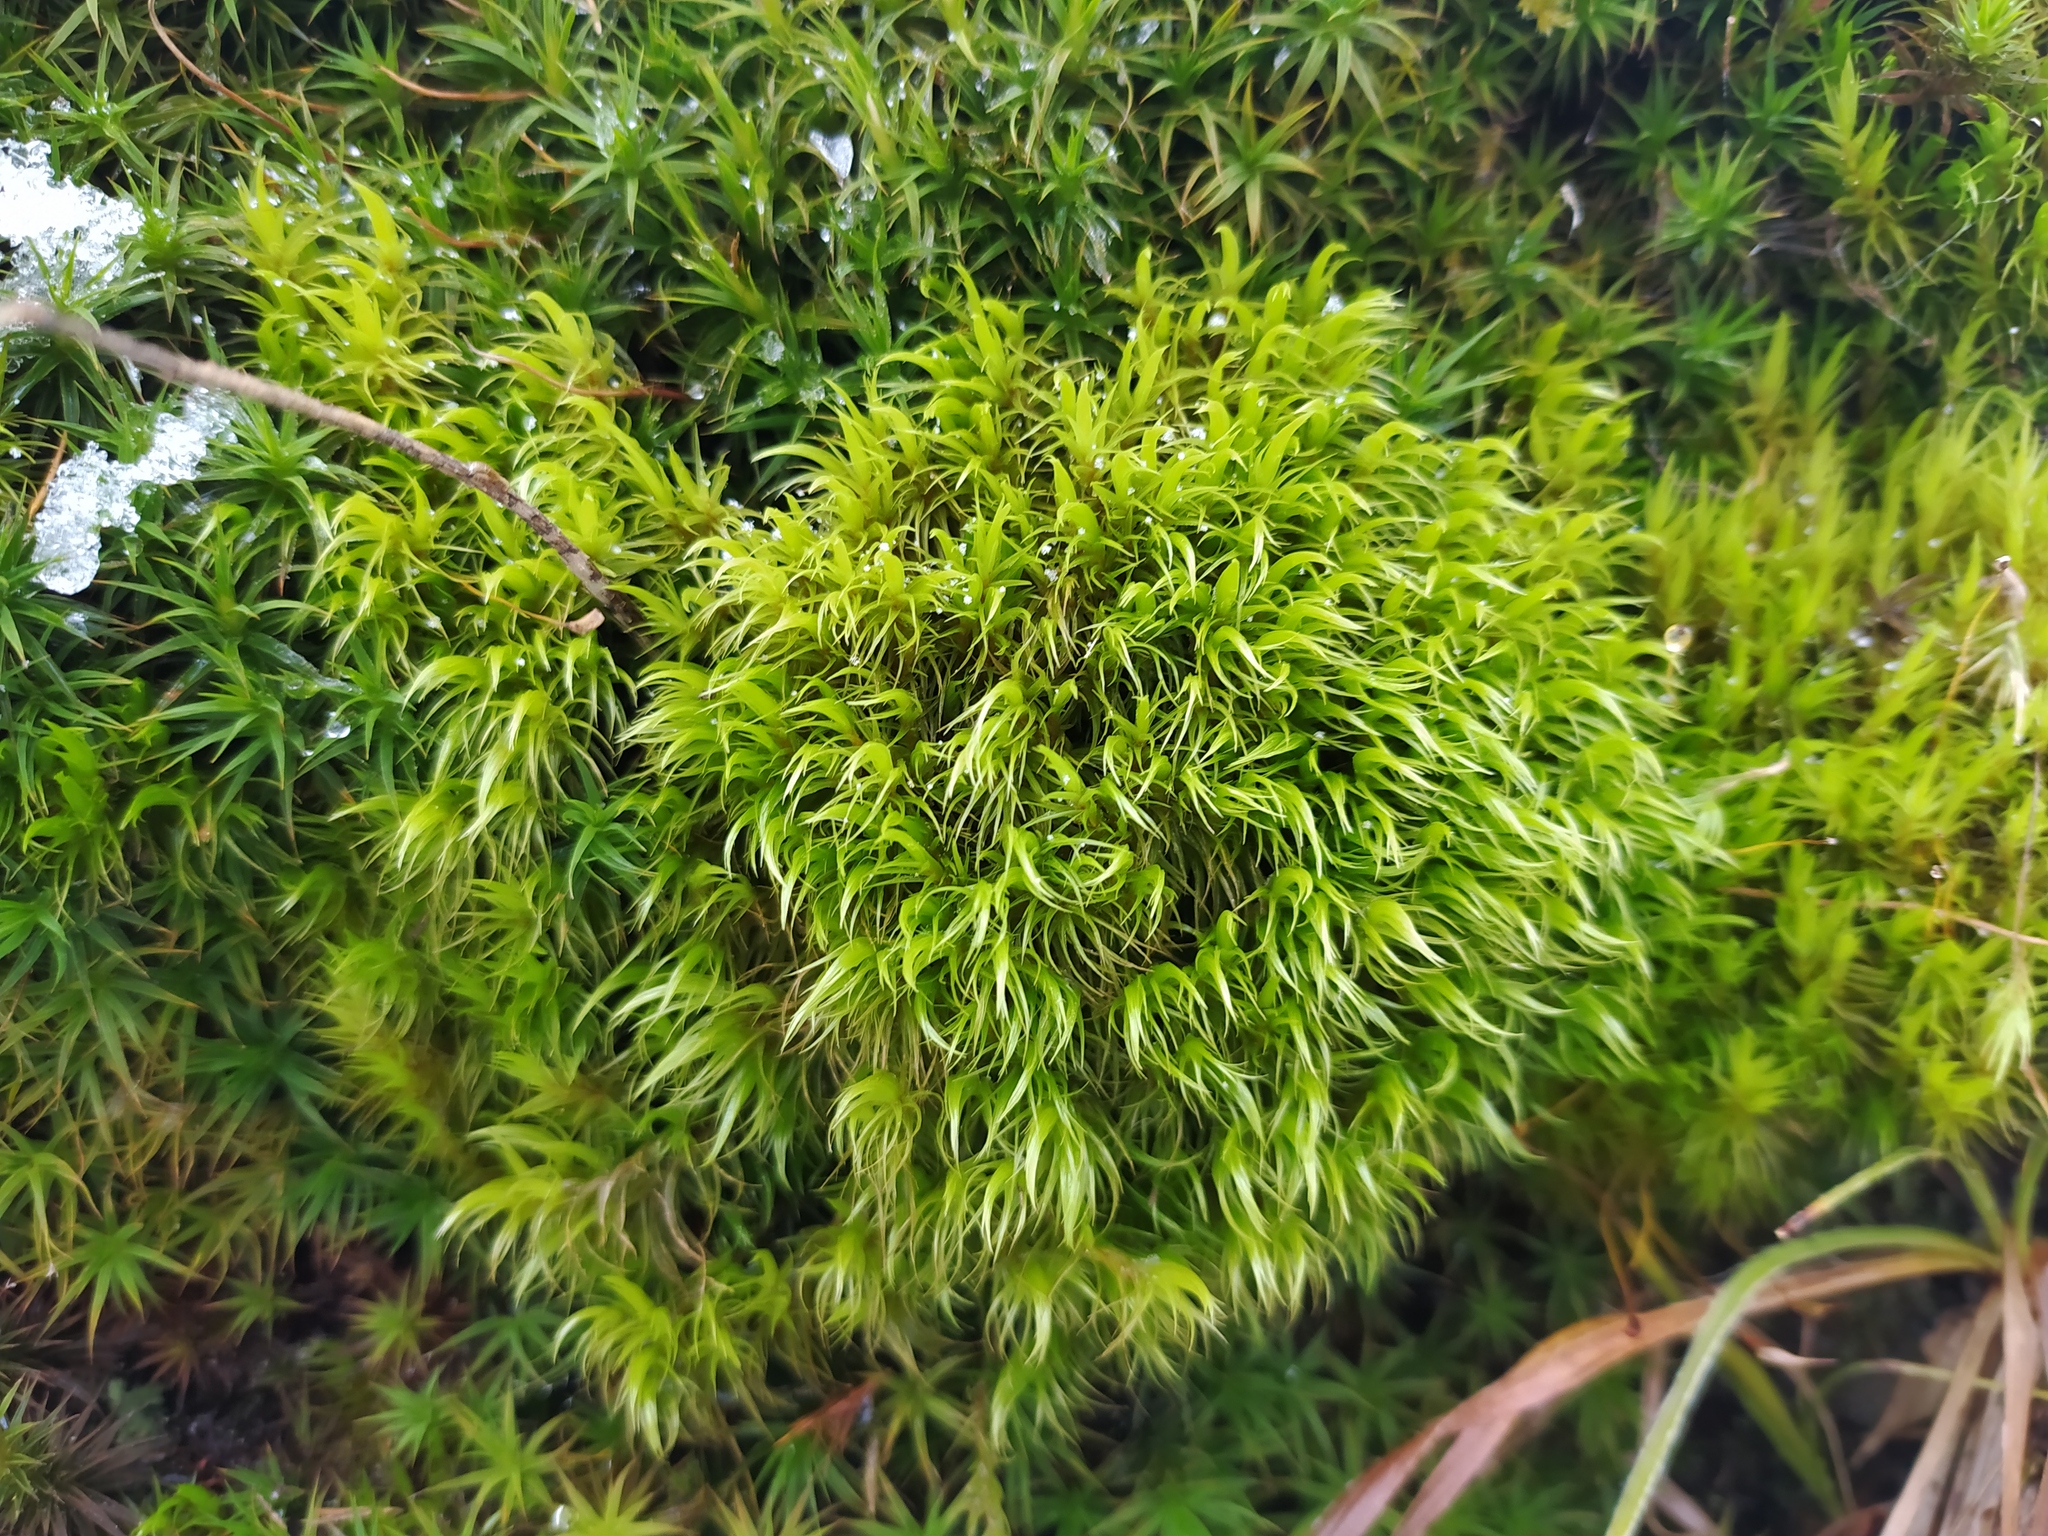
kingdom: Plantae
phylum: Bryophyta
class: Bryopsida
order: Dicranales
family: Dicranaceae
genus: Dicranum
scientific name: Dicranum scoparium
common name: Broom fork-moss
